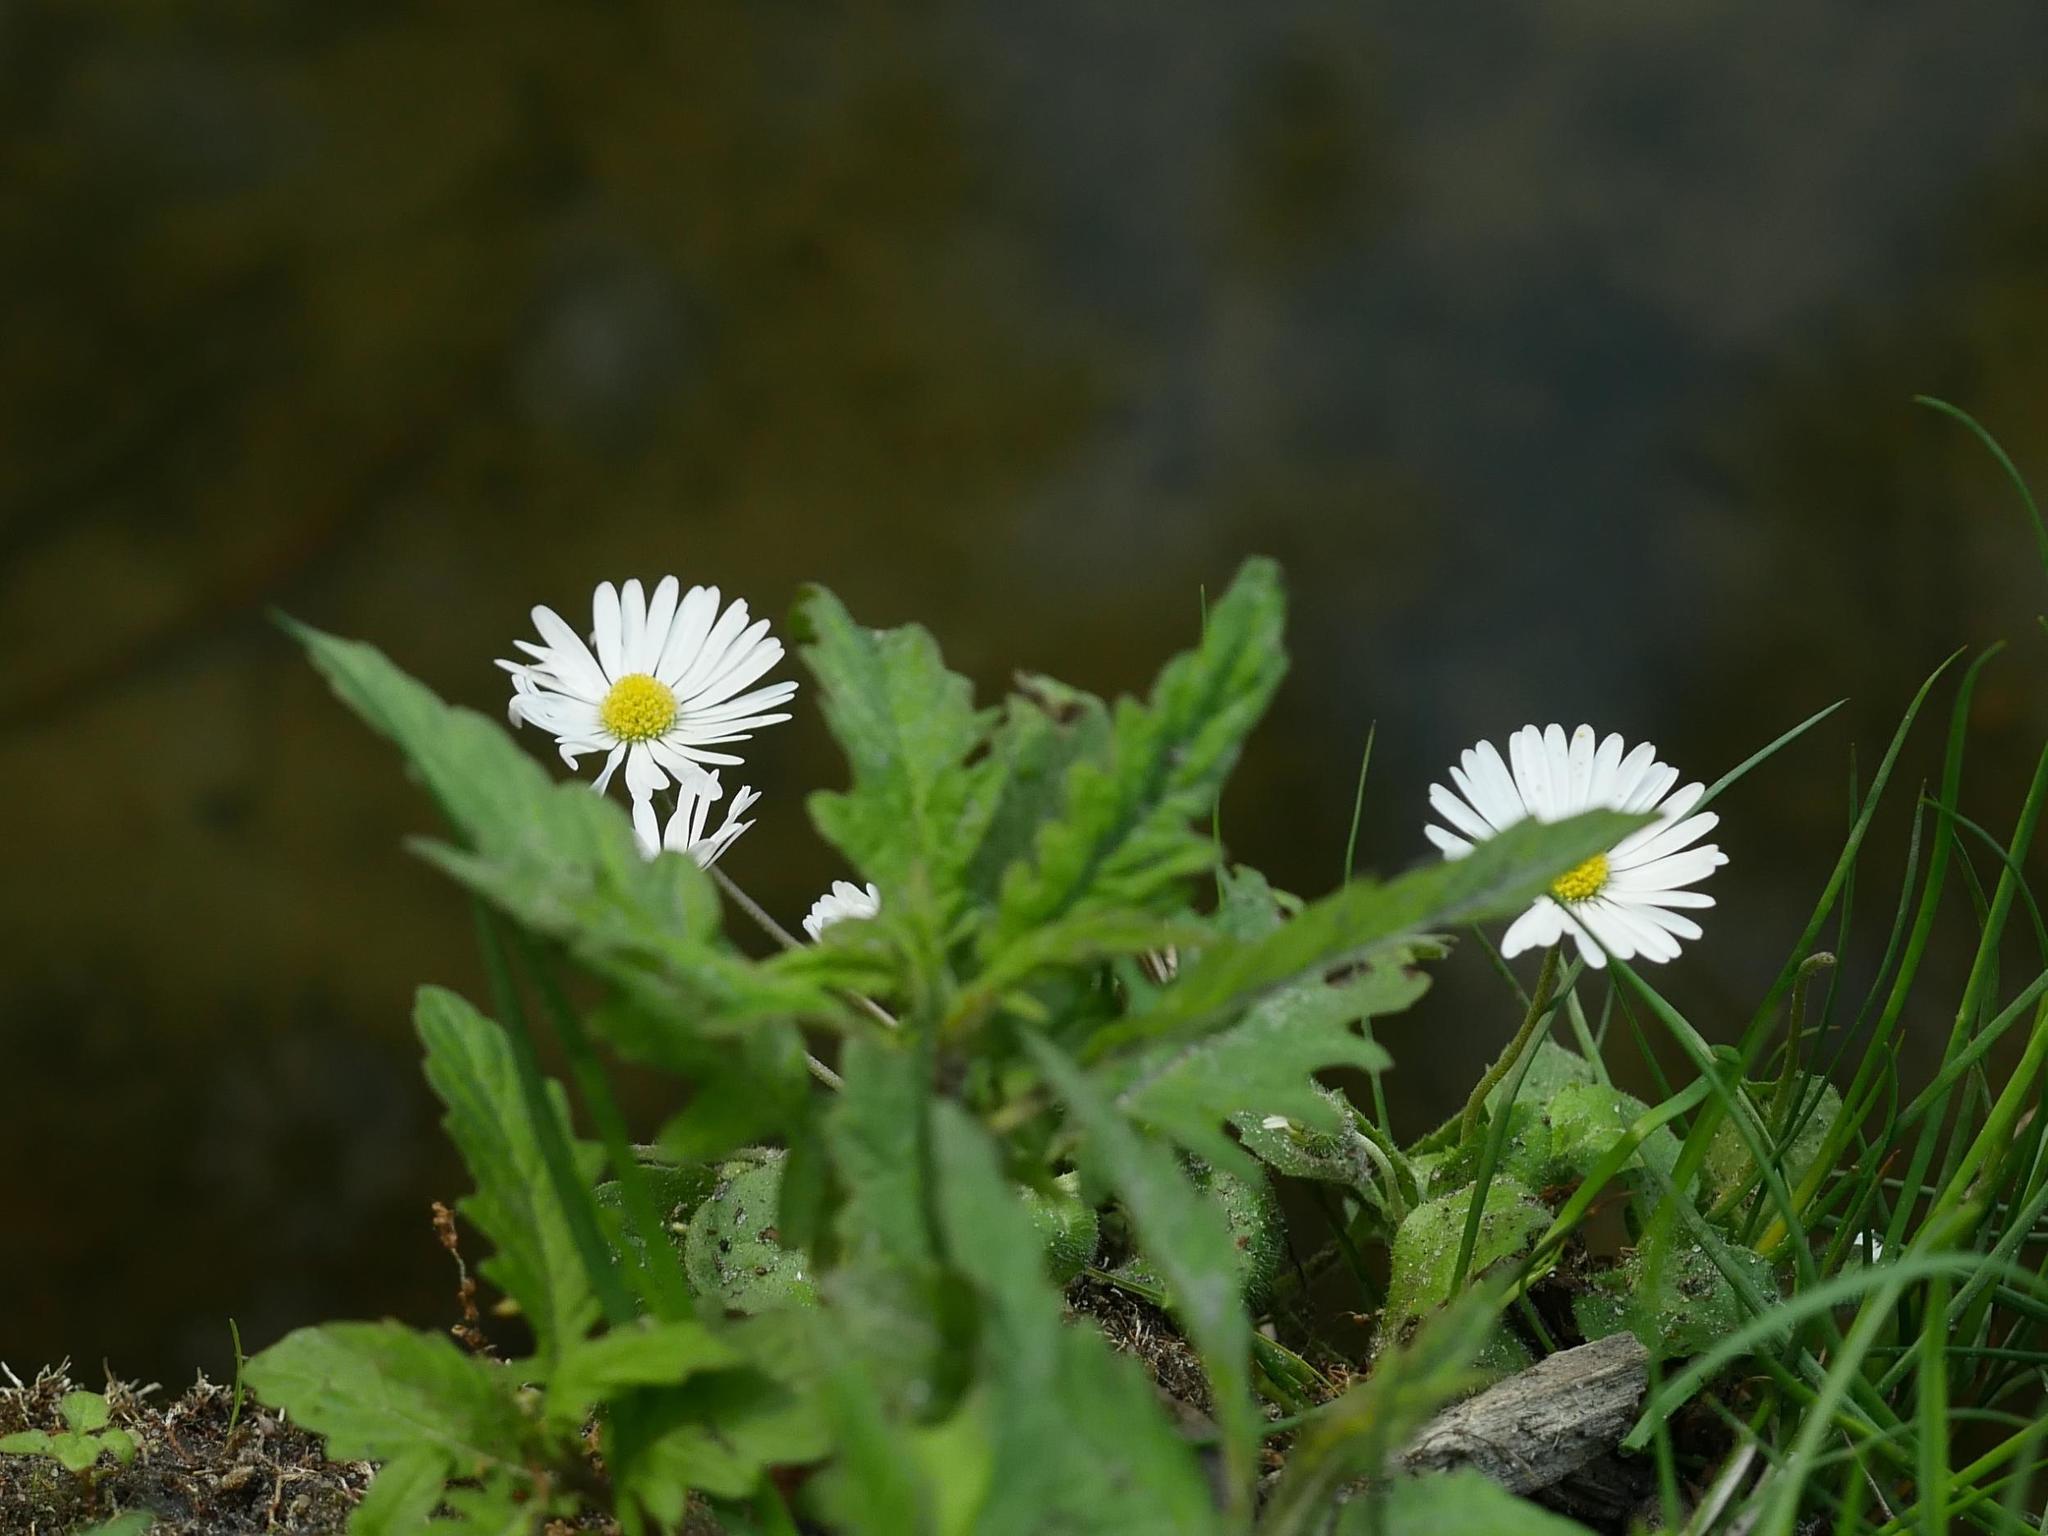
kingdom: Plantae
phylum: Tracheophyta
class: Magnoliopsida
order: Asterales
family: Asteraceae
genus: Bellis
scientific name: Bellis perennis
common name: Lawndaisy
